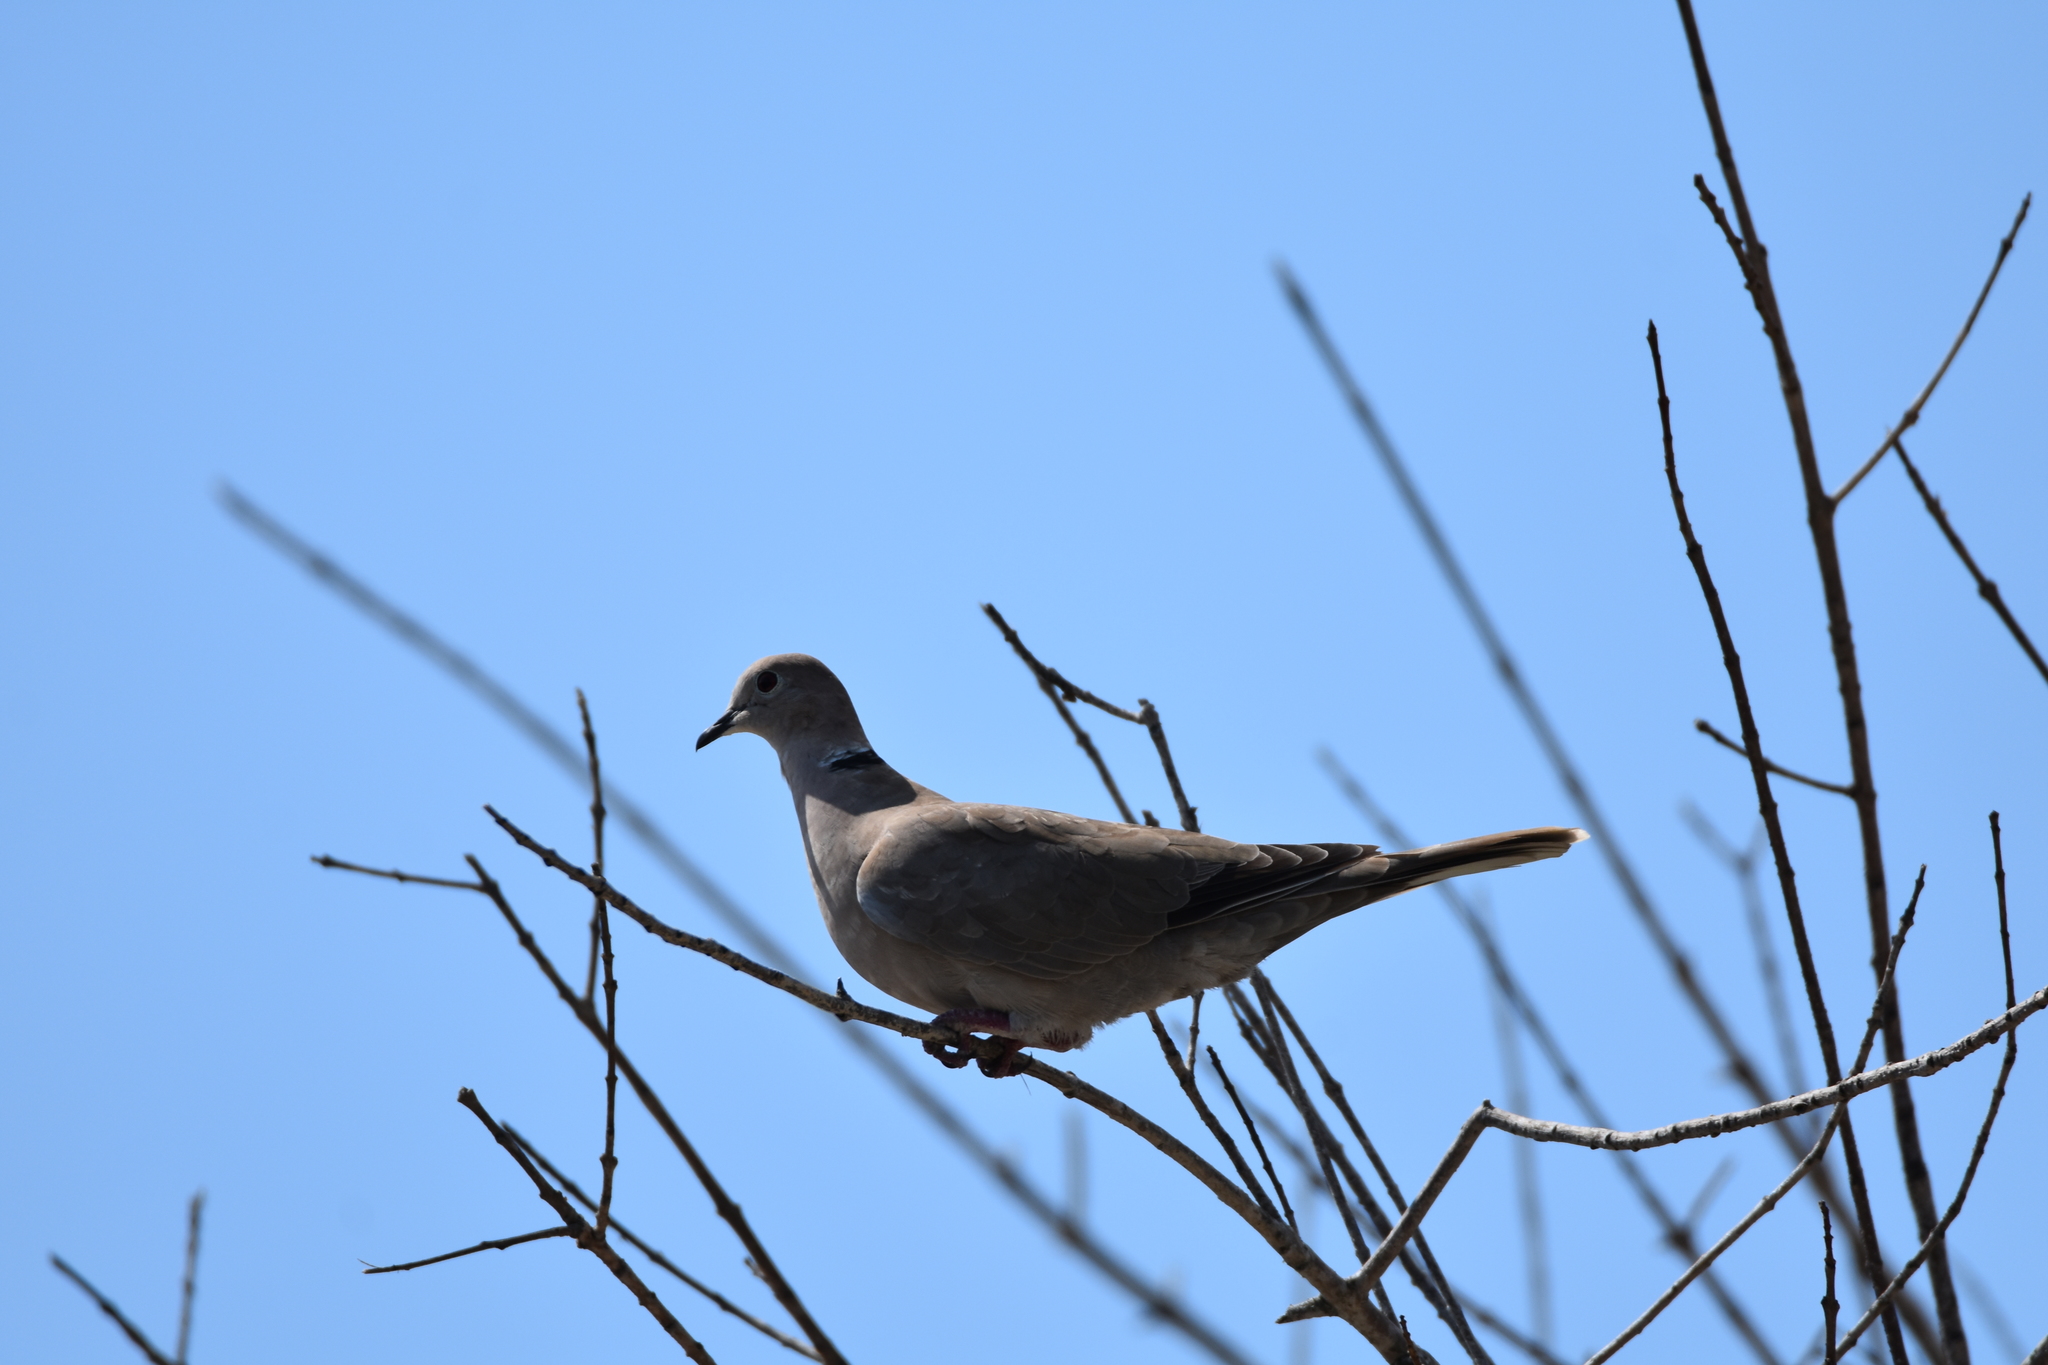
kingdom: Animalia
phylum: Chordata
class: Aves
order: Columbiformes
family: Columbidae
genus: Streptopelia
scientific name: Streptopelia decaocto
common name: Eurasian collared dove
